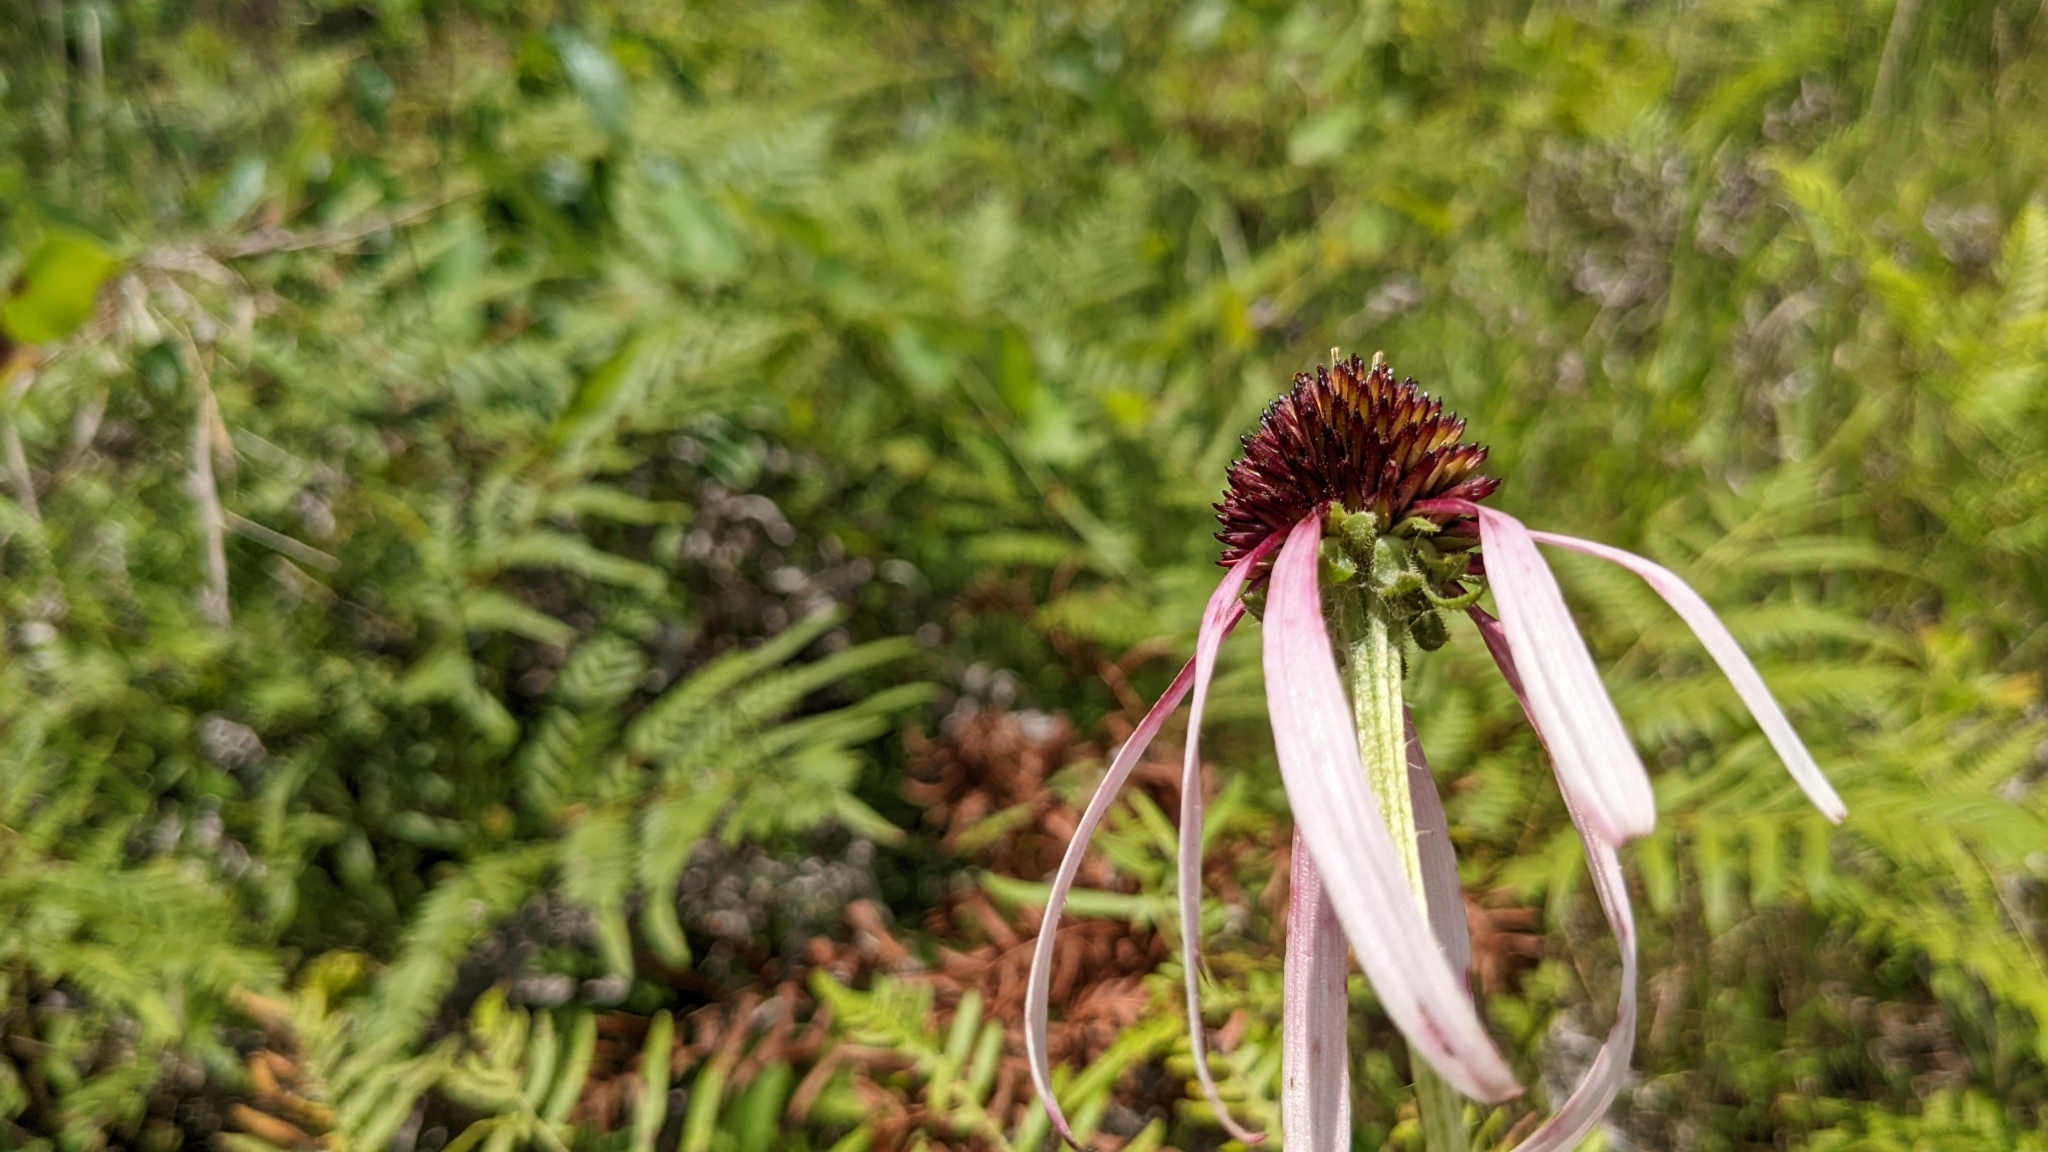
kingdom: Plantae
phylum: Tracheophyta
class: Magnoliopsida
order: Asterales
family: Asteraceae
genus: Echinacea
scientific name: Echinacea sanguinea
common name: Sanguine purple-coneflower
